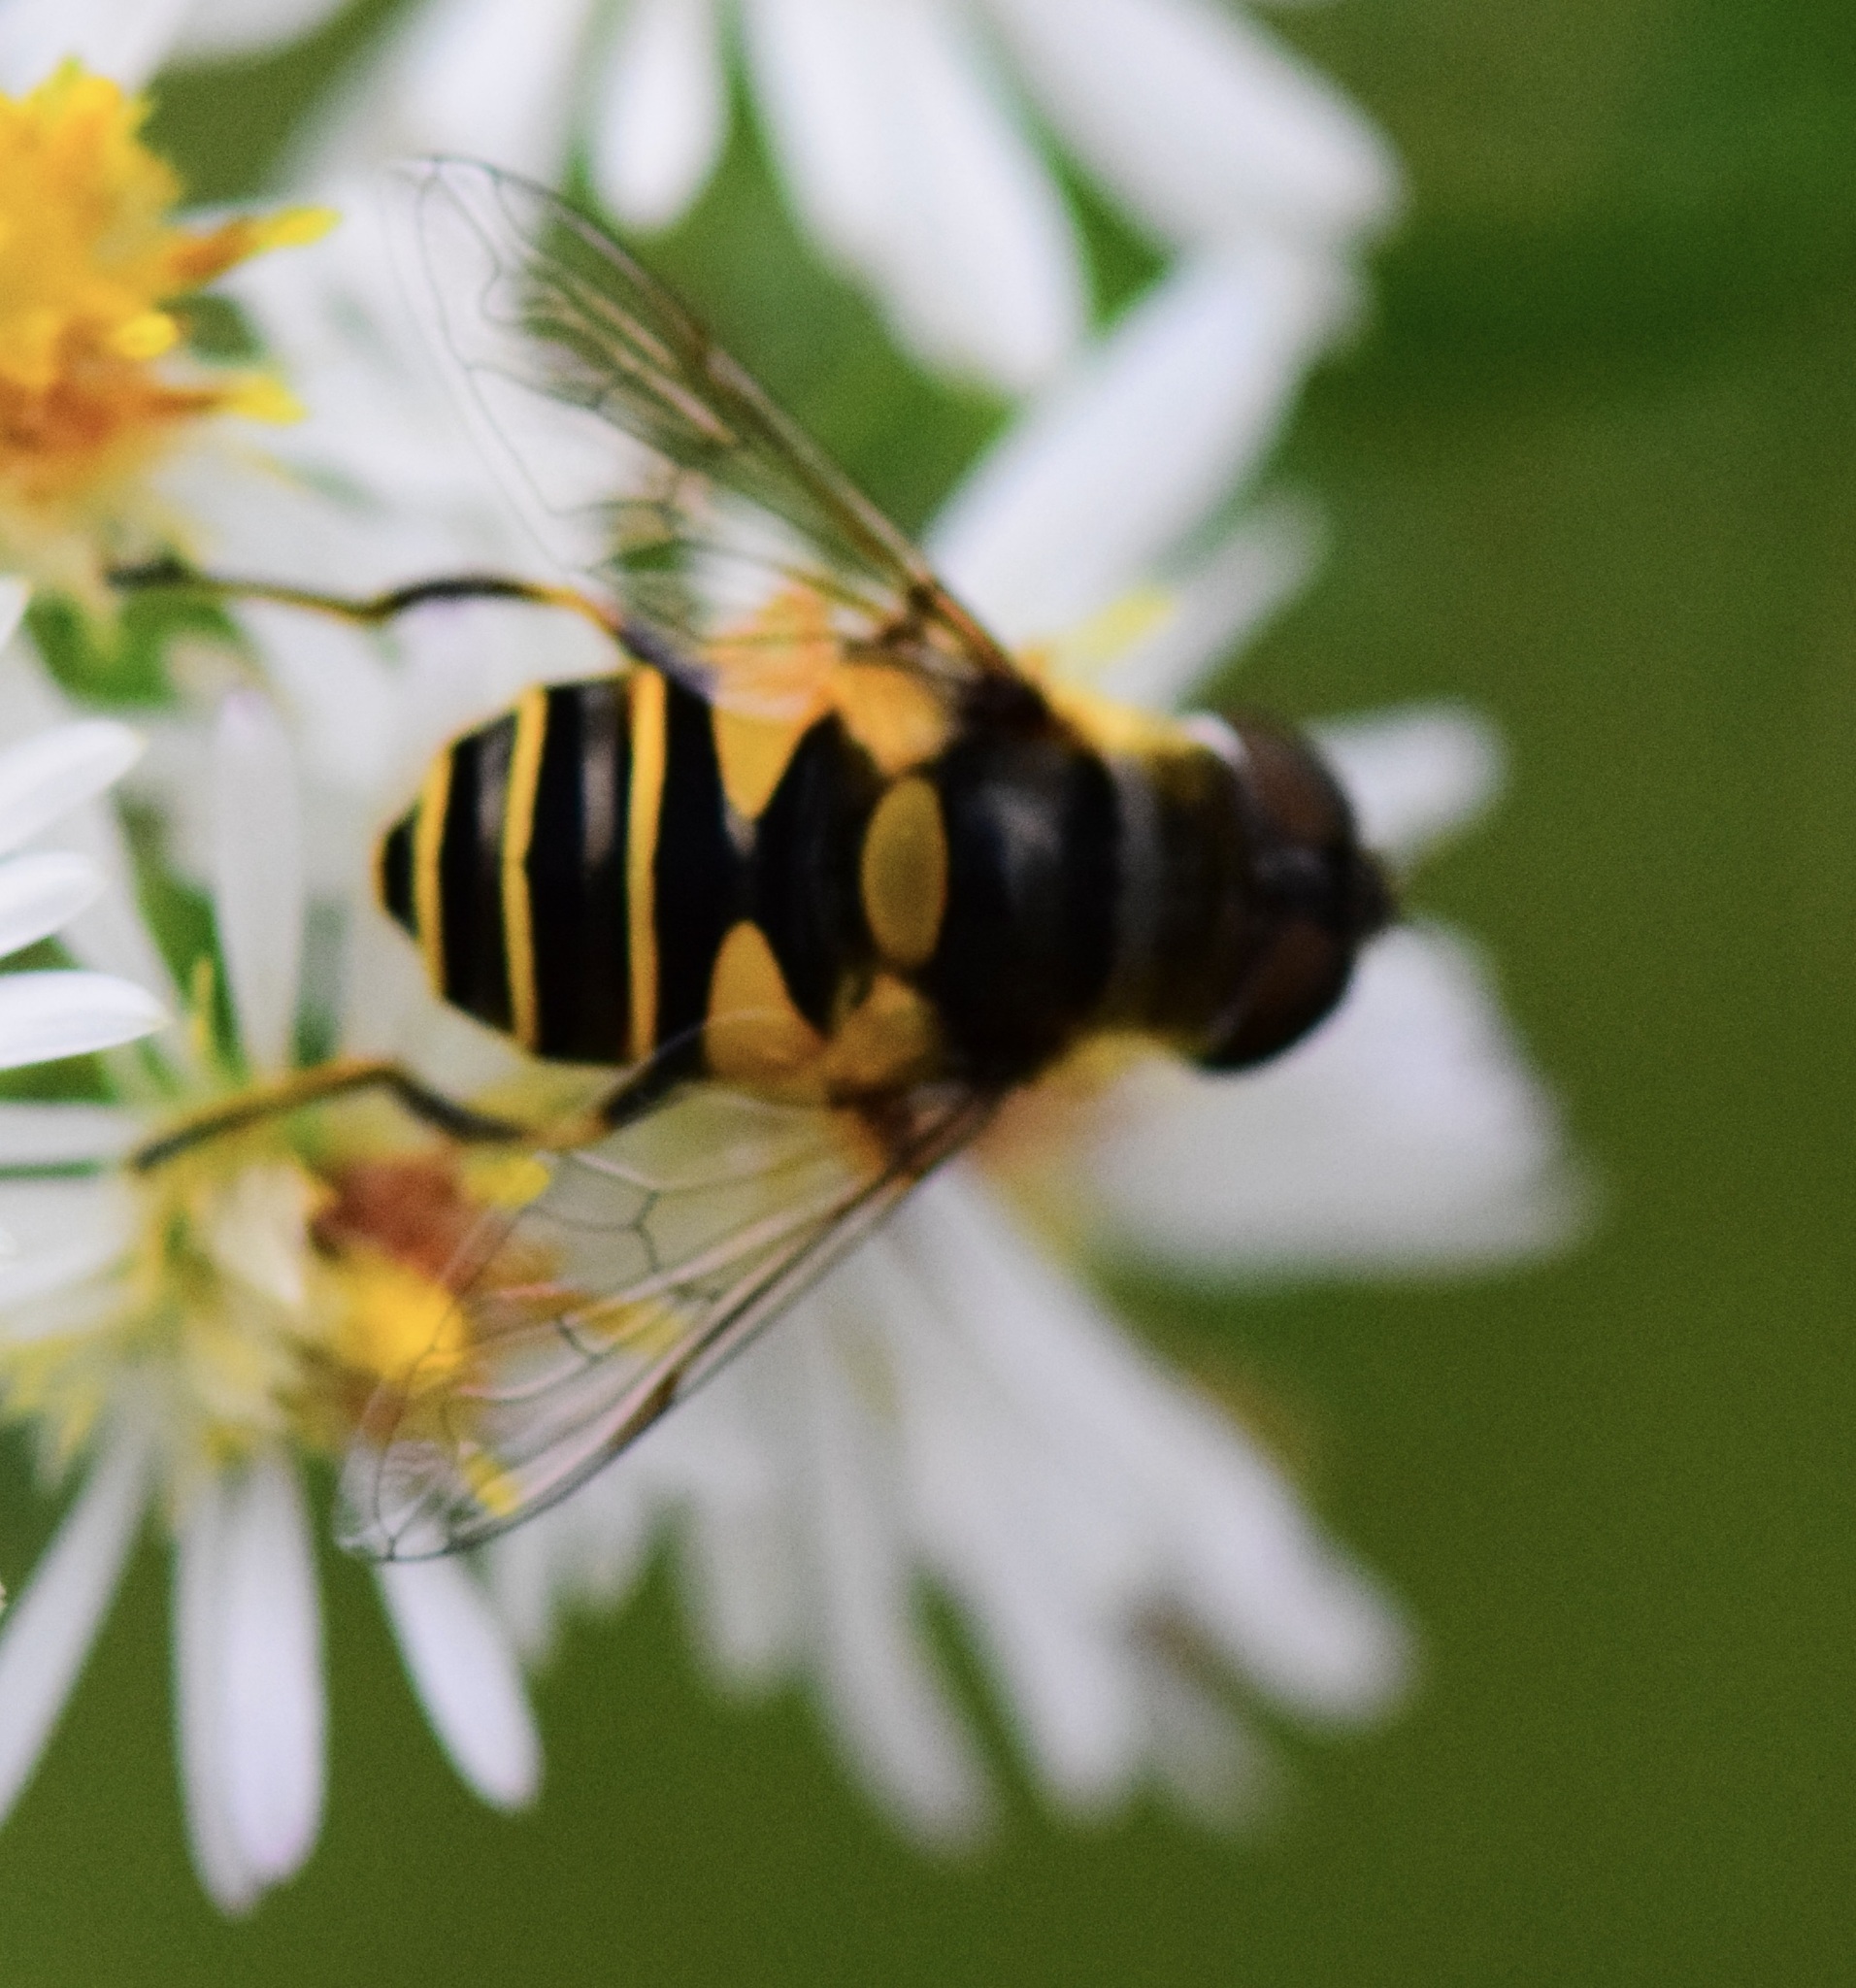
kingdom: Animalia
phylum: Arthropoda
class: Insecta
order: Diptera
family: Syrphidae
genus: Eristalis
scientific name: Eristalis transversa
